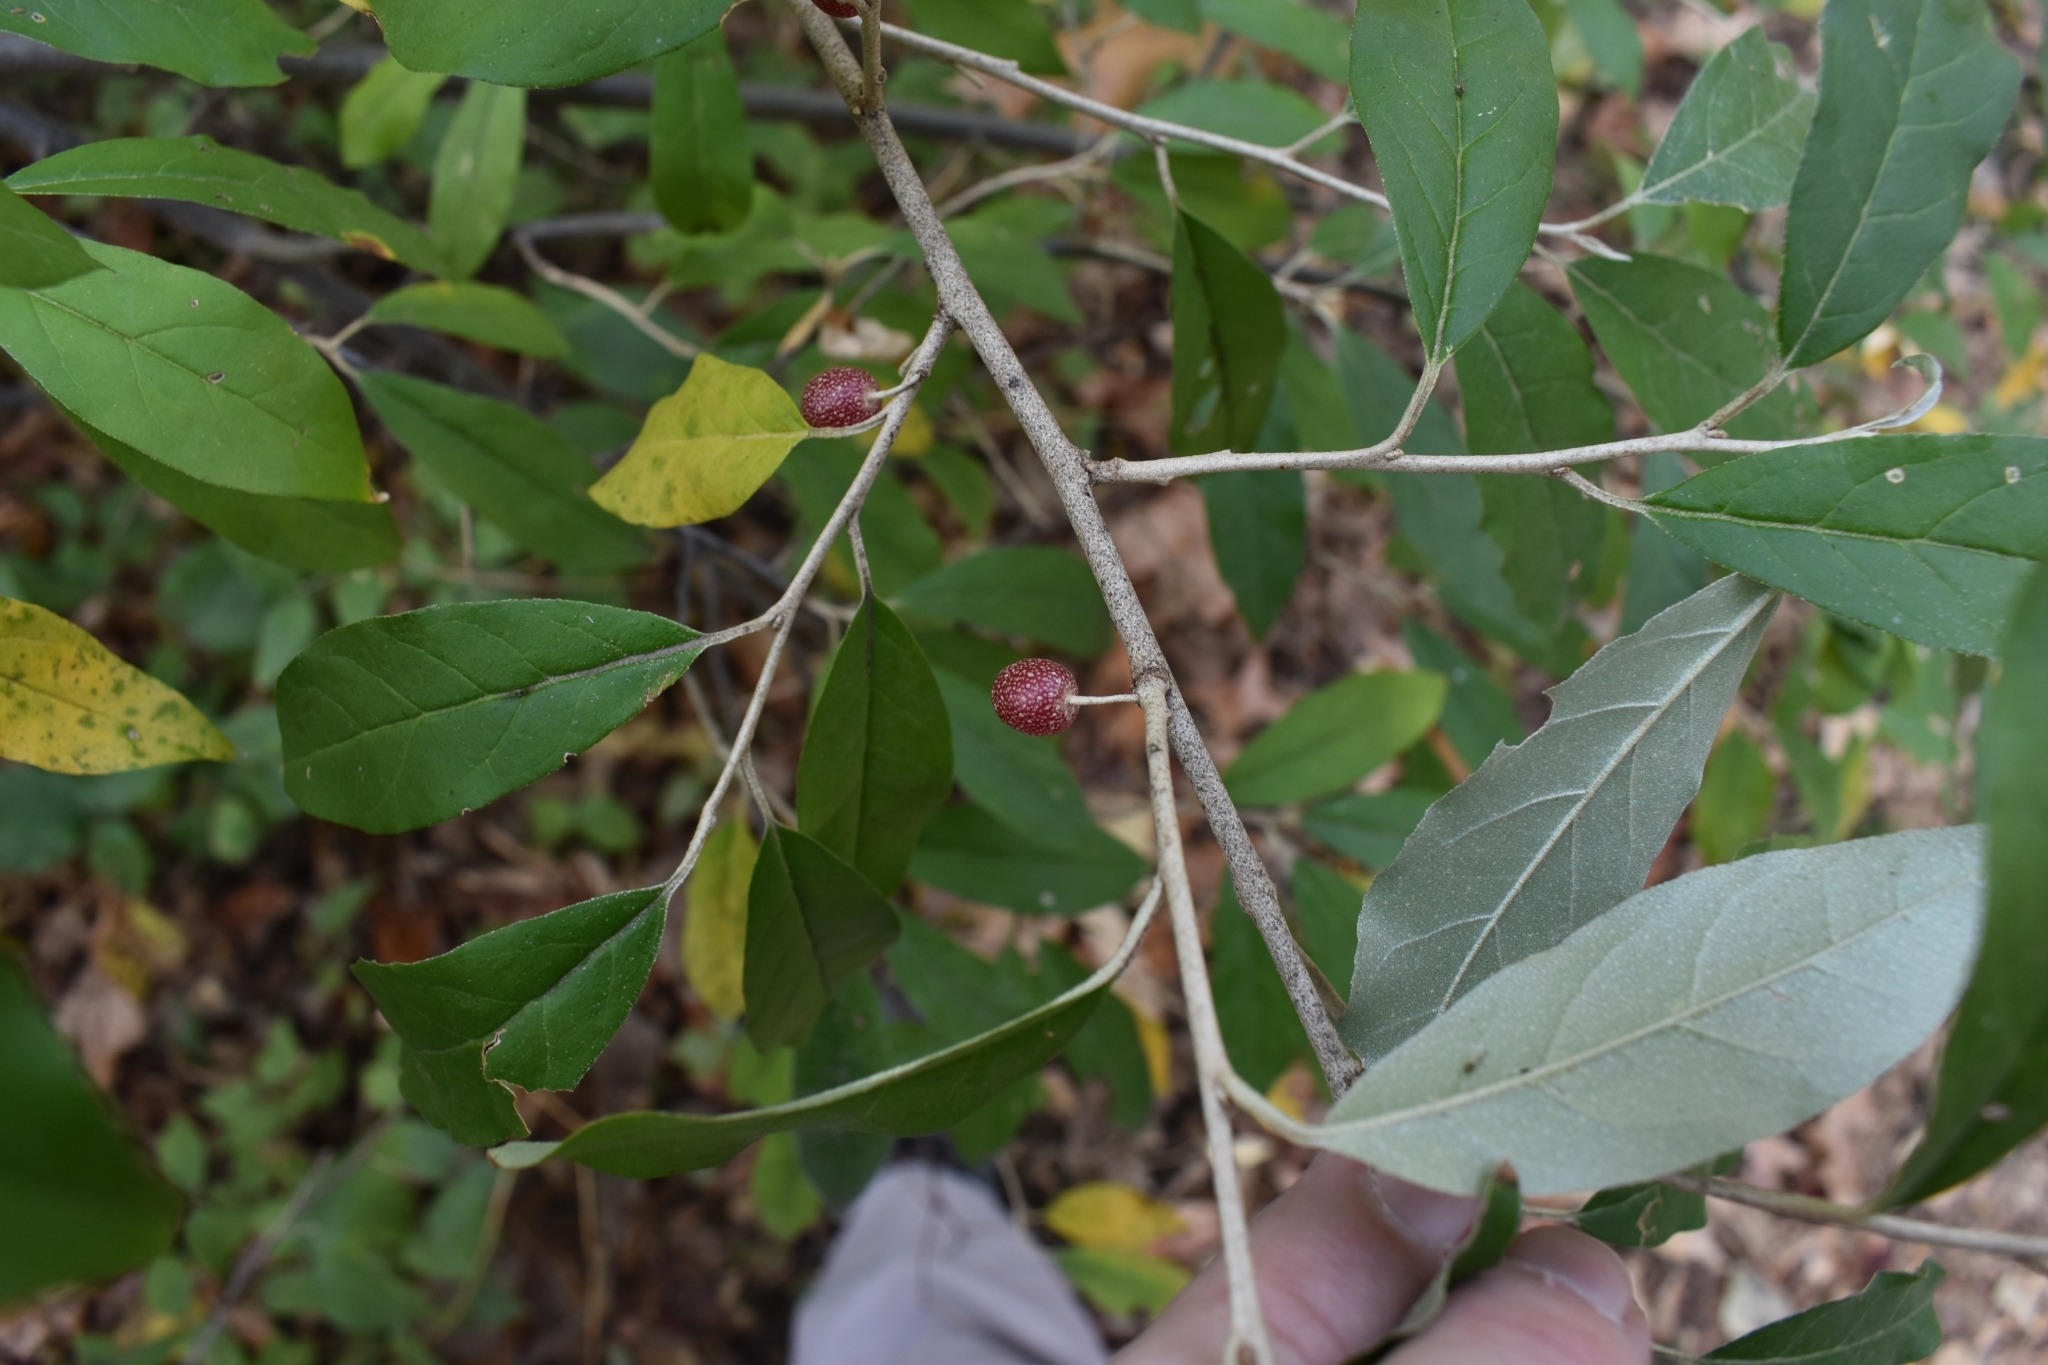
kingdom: Plantae
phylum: Tracheophyta
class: Magnoliopsida
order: Rosales
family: Elaeagnaceae
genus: Elaeagnus
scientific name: Elaeagnus umbellata
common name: Autumn olive
